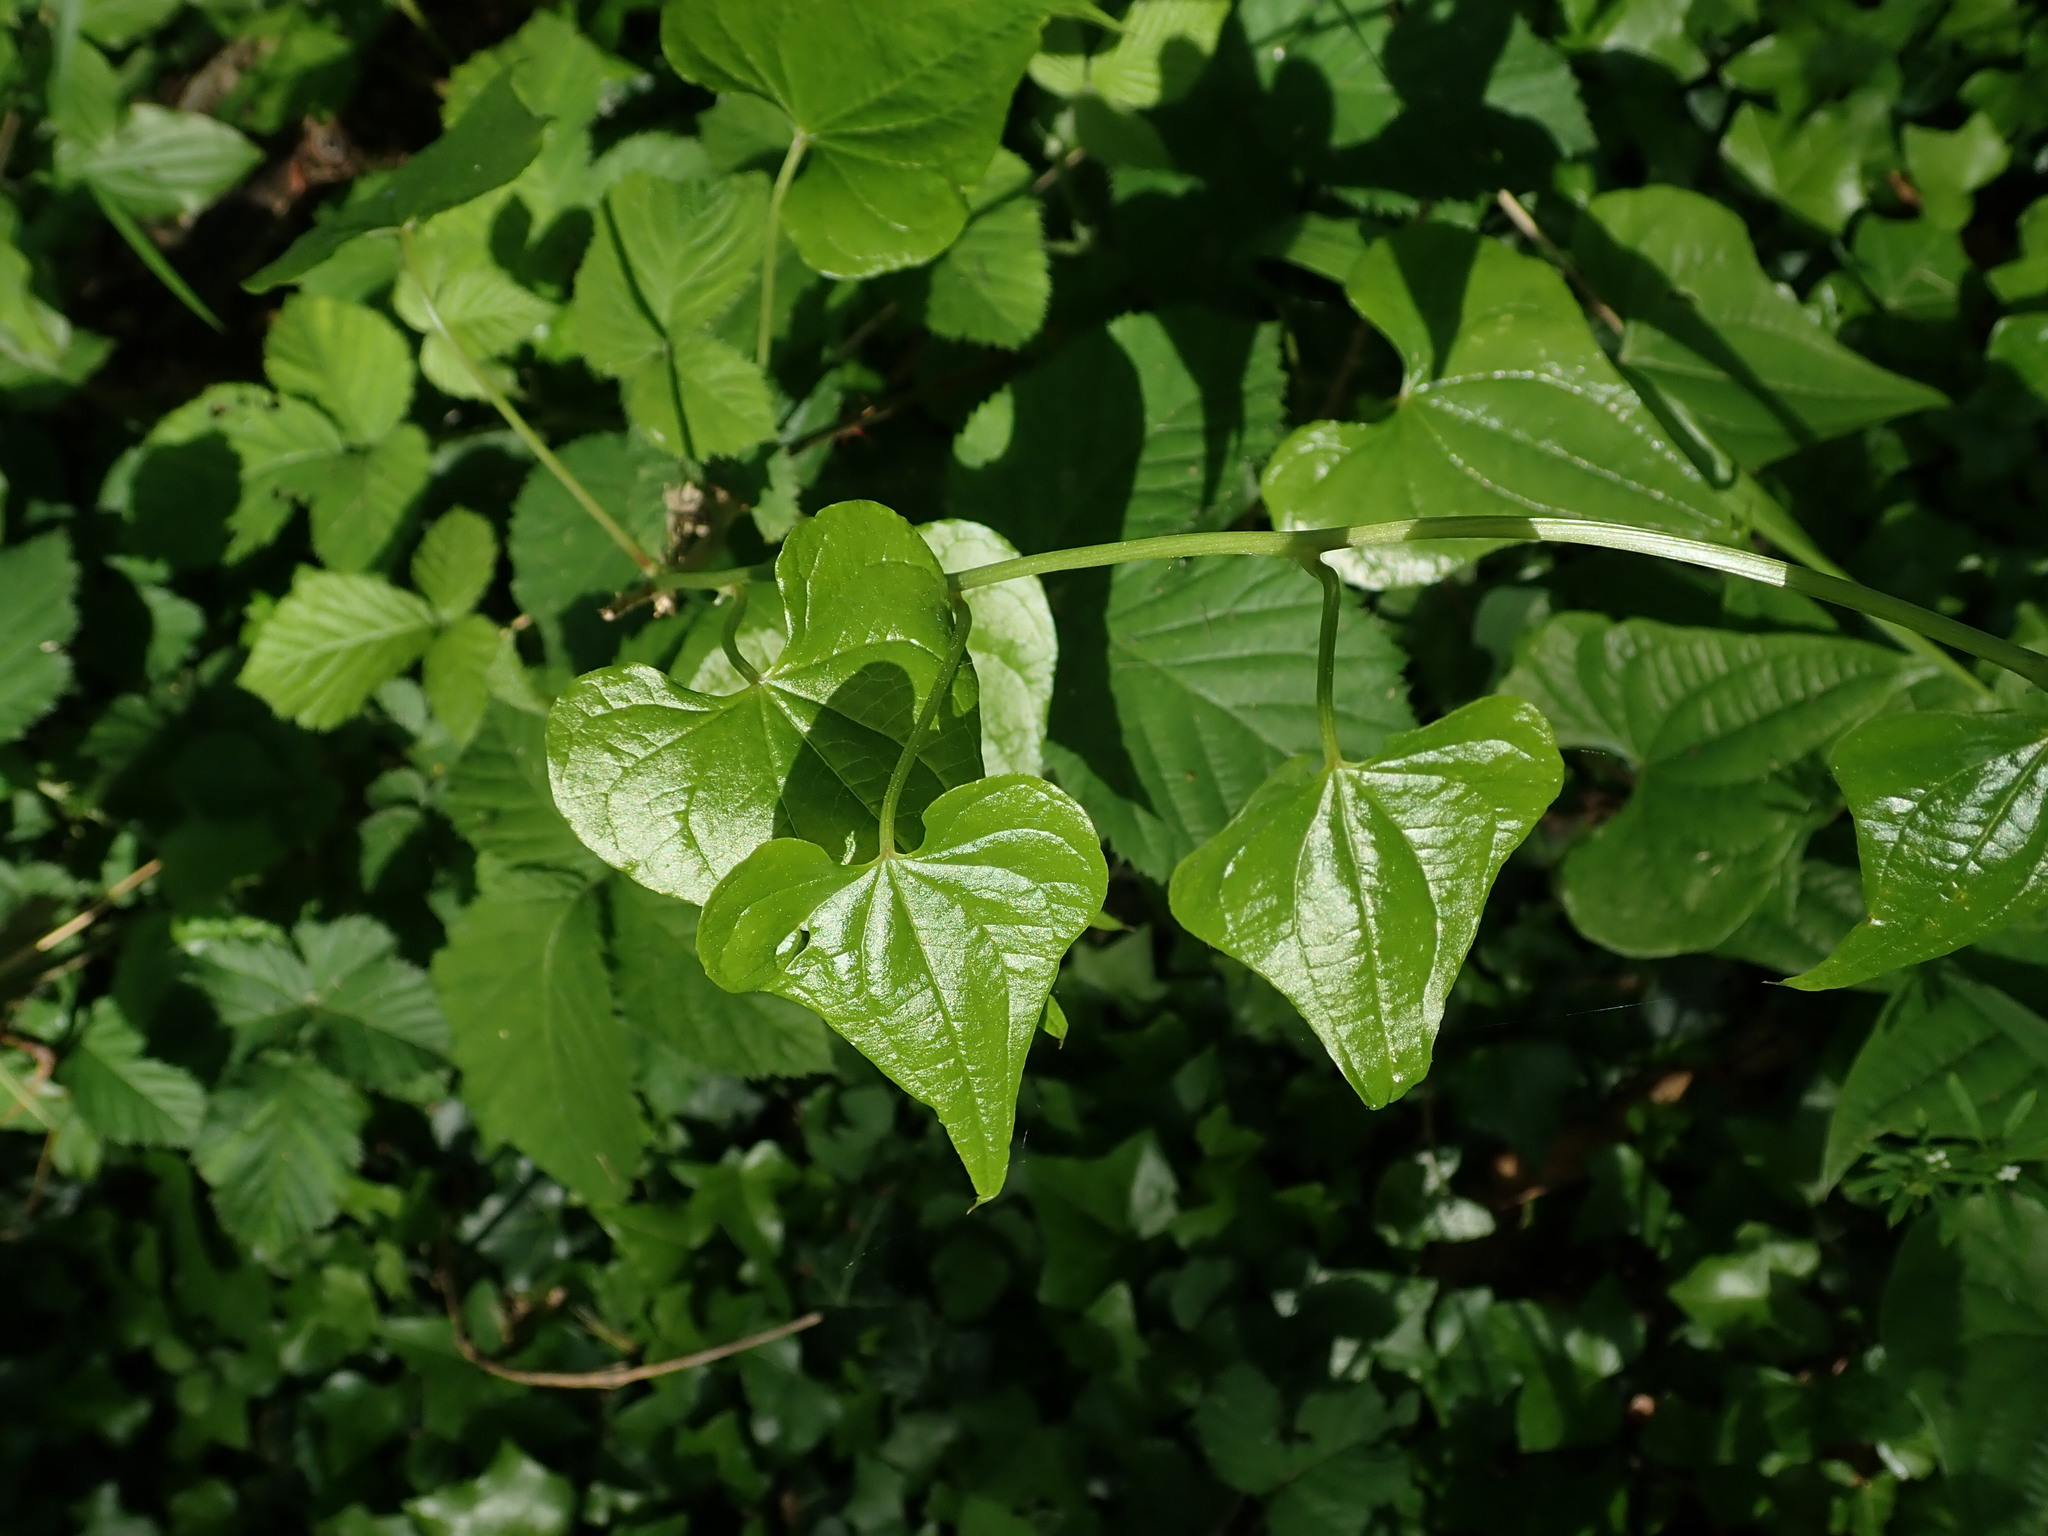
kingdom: Plantae
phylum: Tracheophyta
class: Liliopsida
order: Dioscoreales
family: Dioscoreaceae
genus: Dioscorea
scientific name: Dioscorea communis
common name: Black-bindweed
